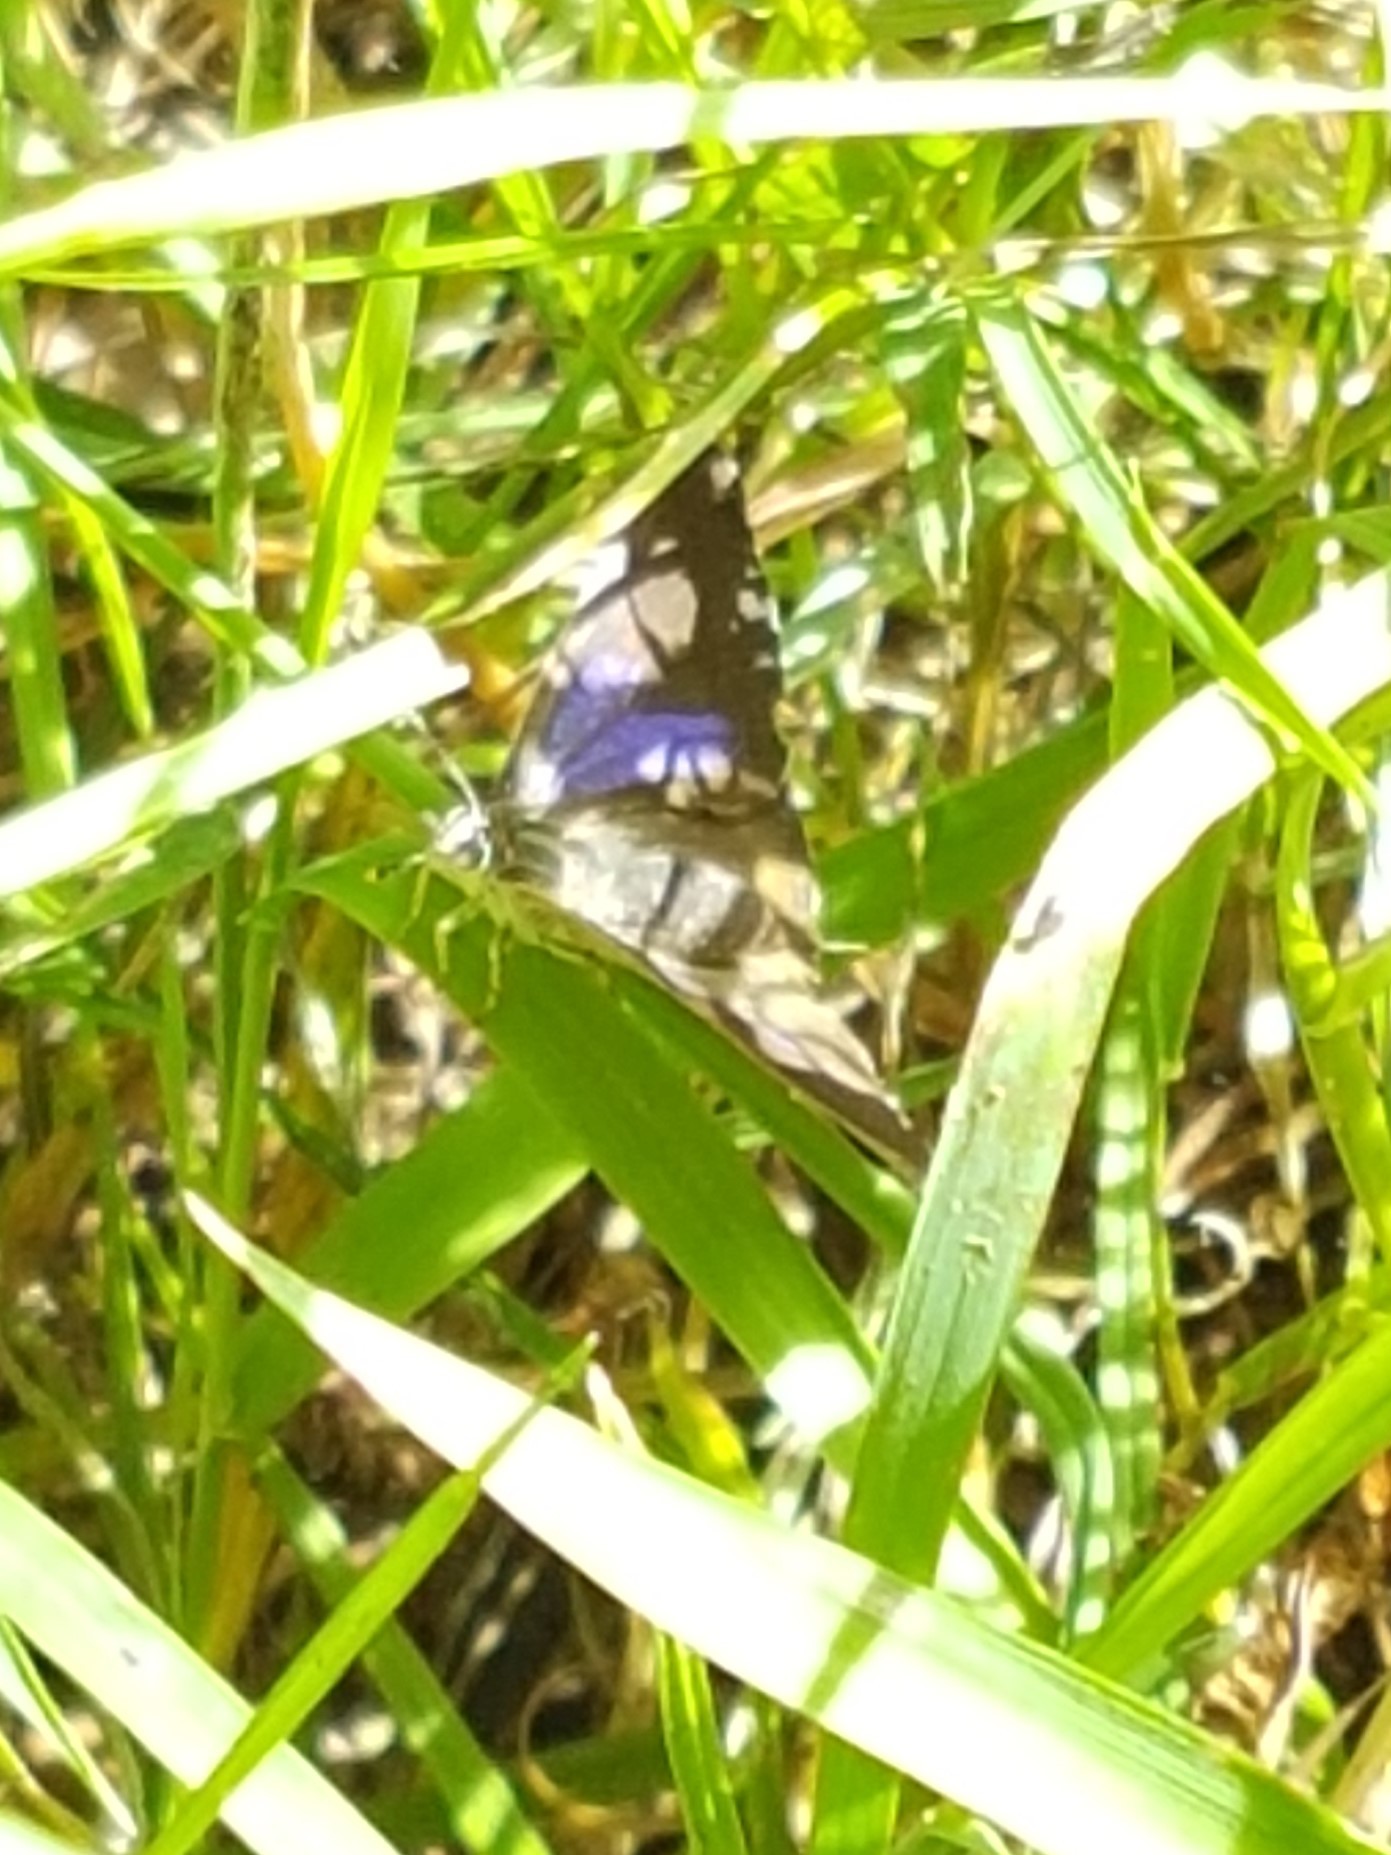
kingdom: Animalia
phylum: Arthropoda
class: Insecta
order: Lepidoptera
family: Lycaenidae
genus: Quercusia
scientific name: Quercusia quercus
